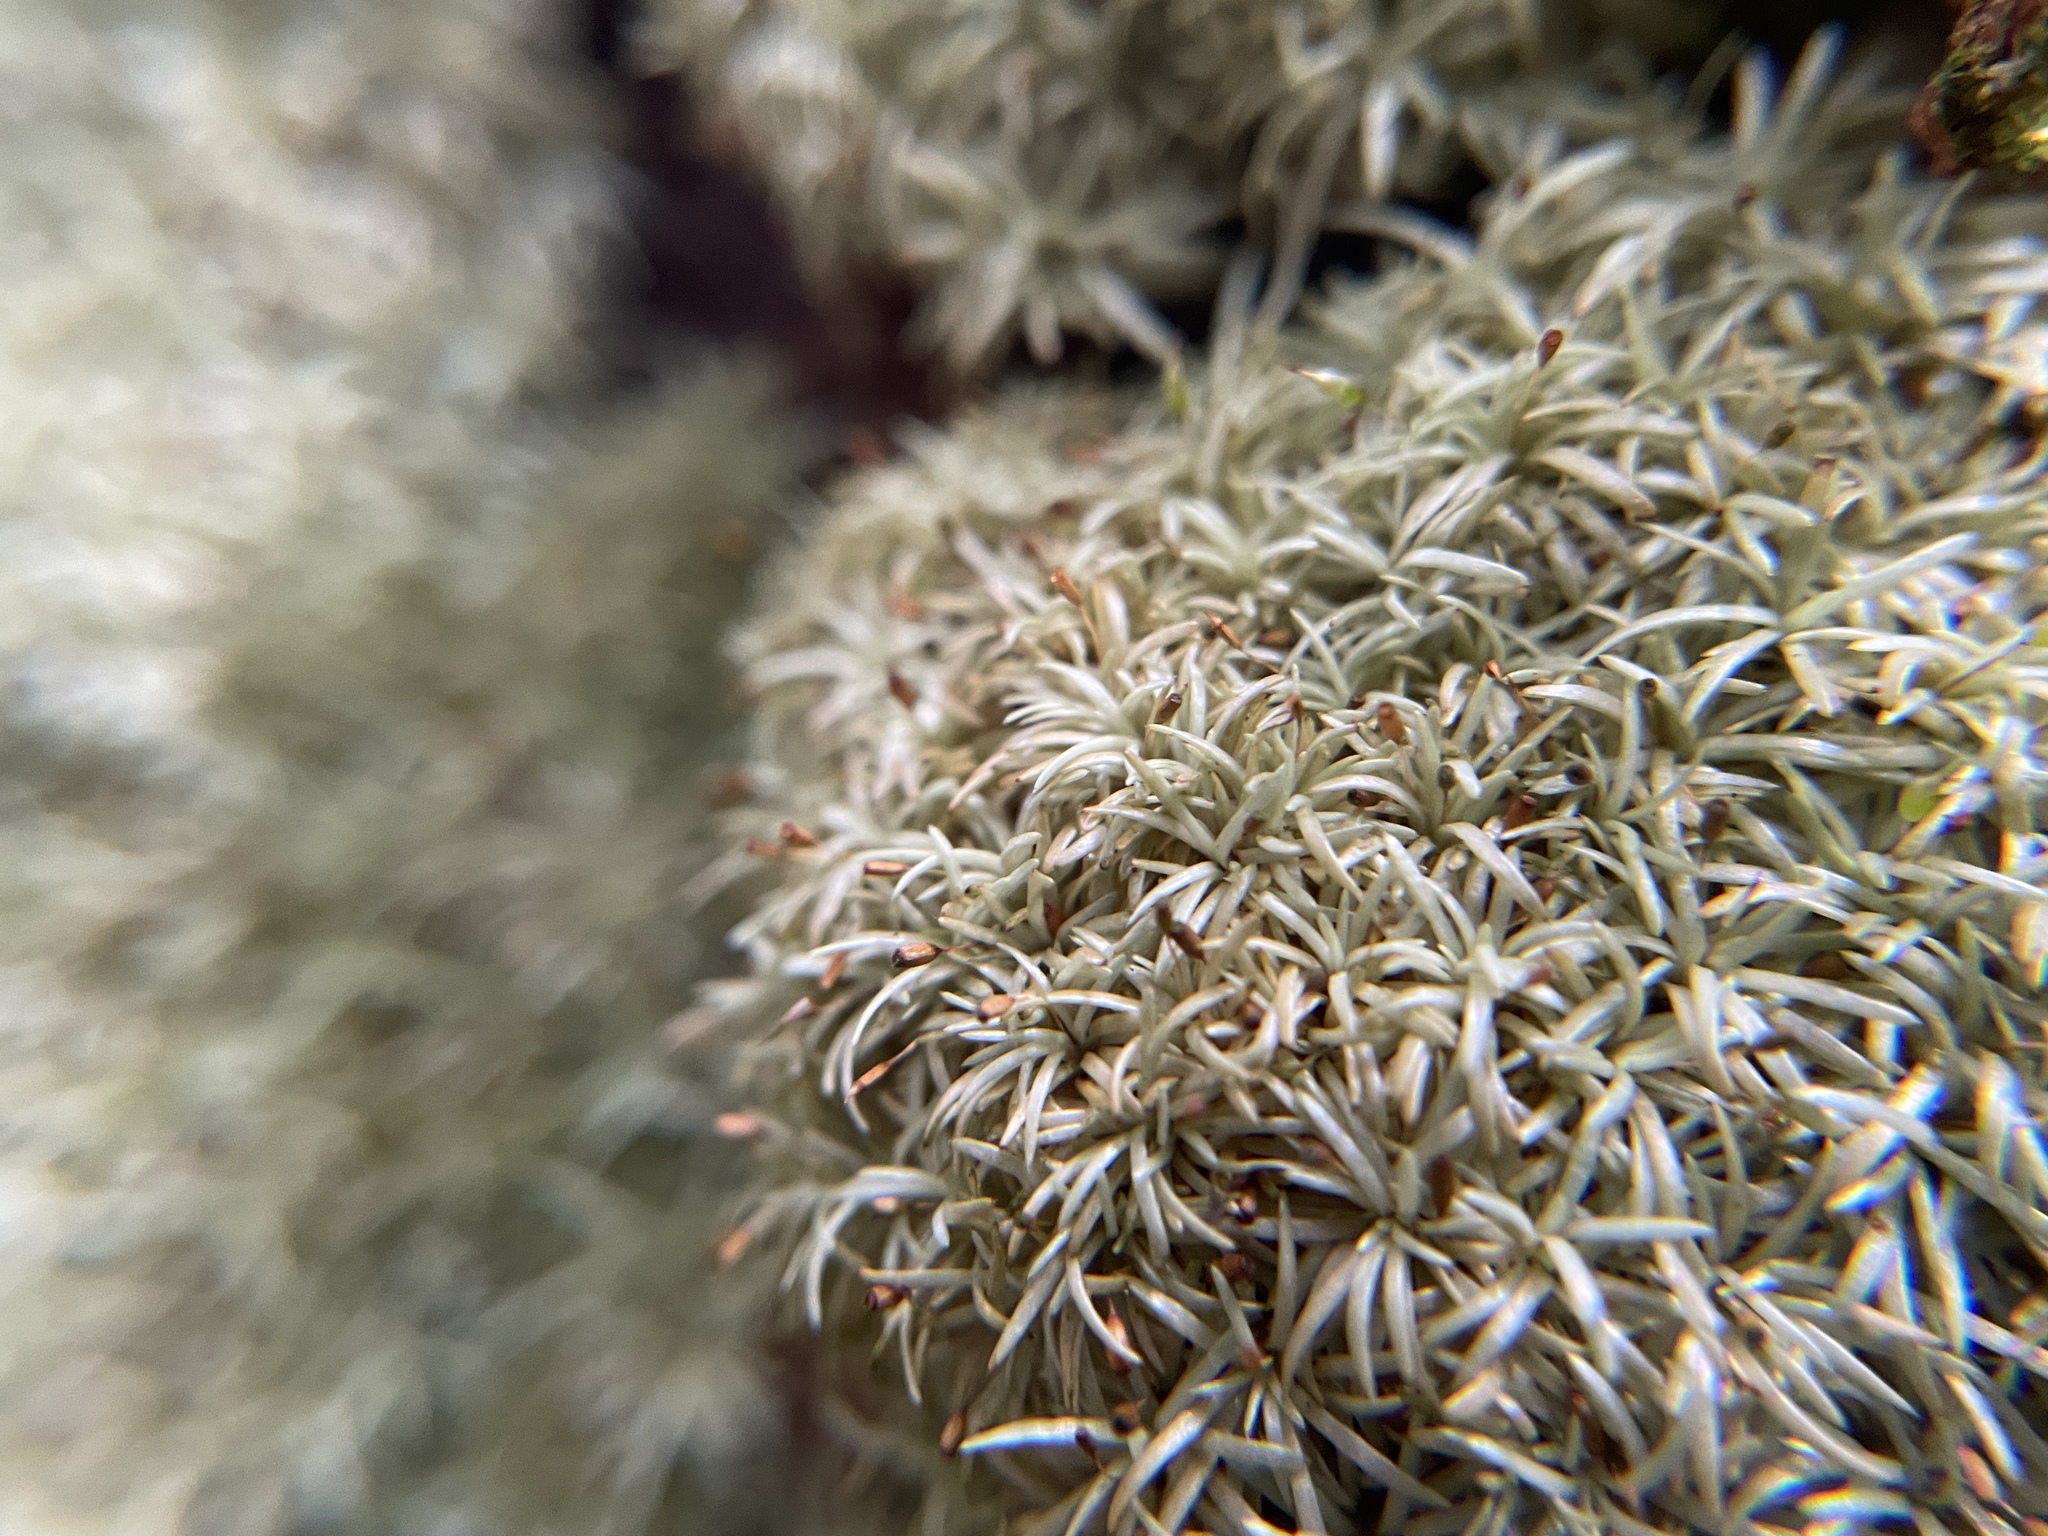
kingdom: Plantae
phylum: Bryophyta
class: Bryopsida
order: Dicranales
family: Octoblepharaceae
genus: Octoblepharum
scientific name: Octoblepharum albidum
